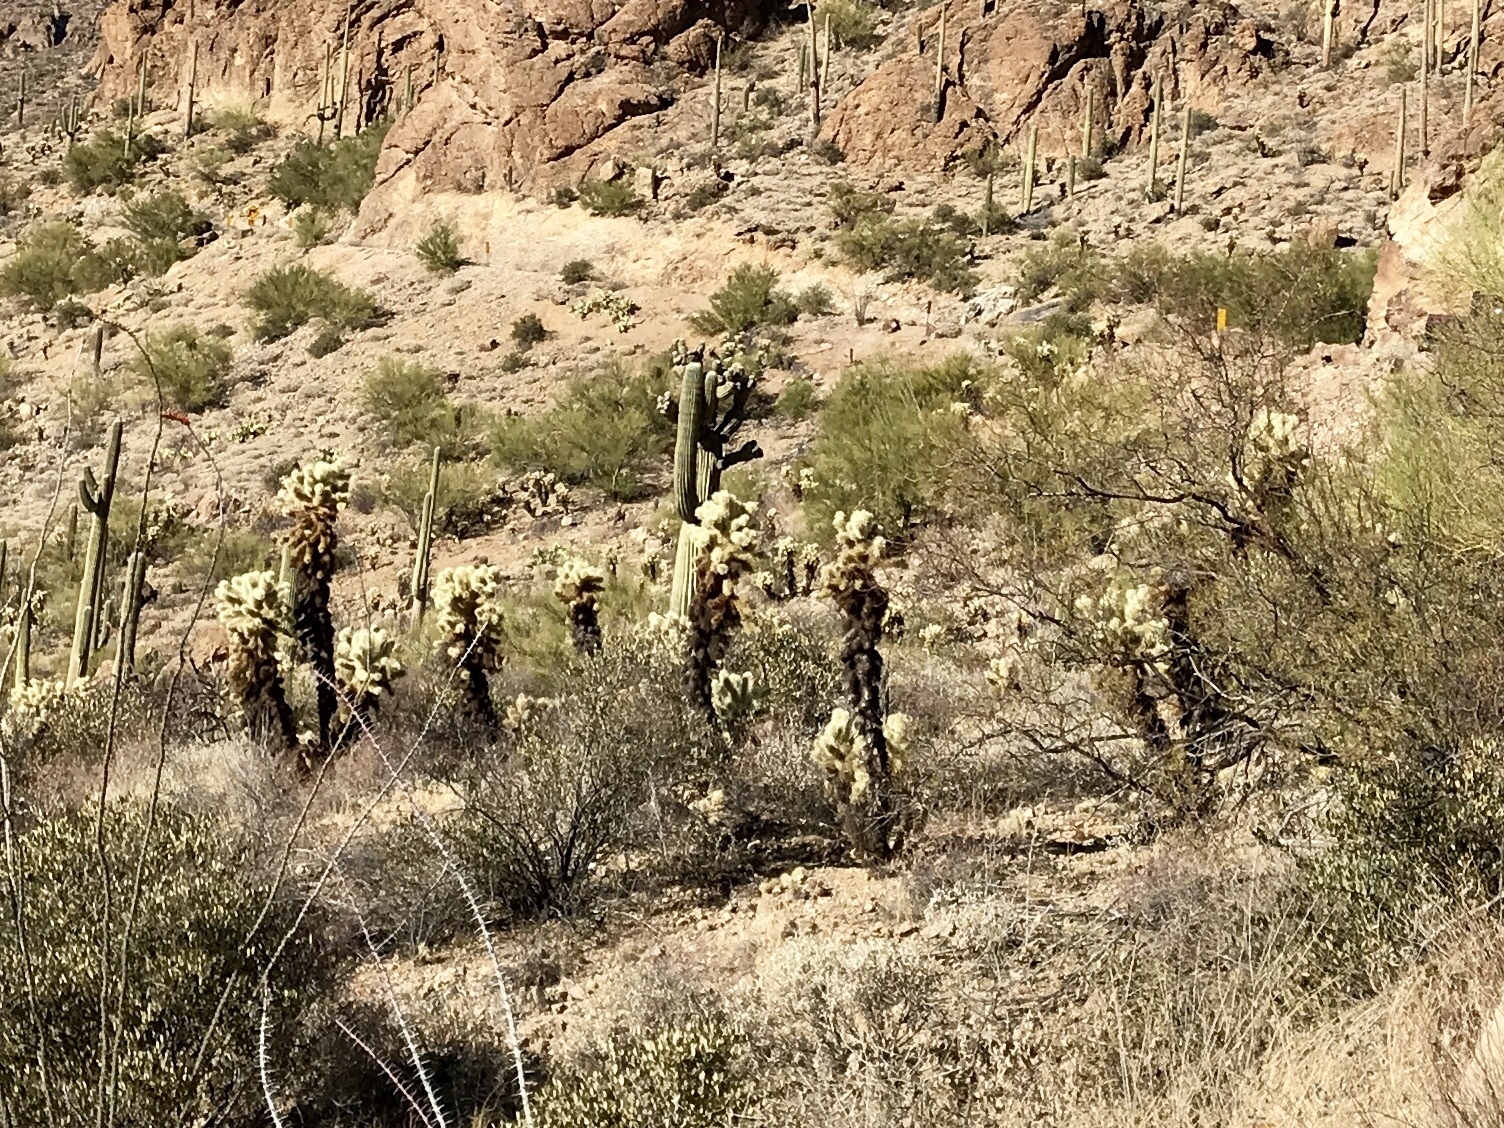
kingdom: Plantae
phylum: Tracheophyta
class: Magnoliopsida
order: Caryophyllales
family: Cactaceae
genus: Cylindropuntia
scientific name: Cylindropuntia fosbergii
